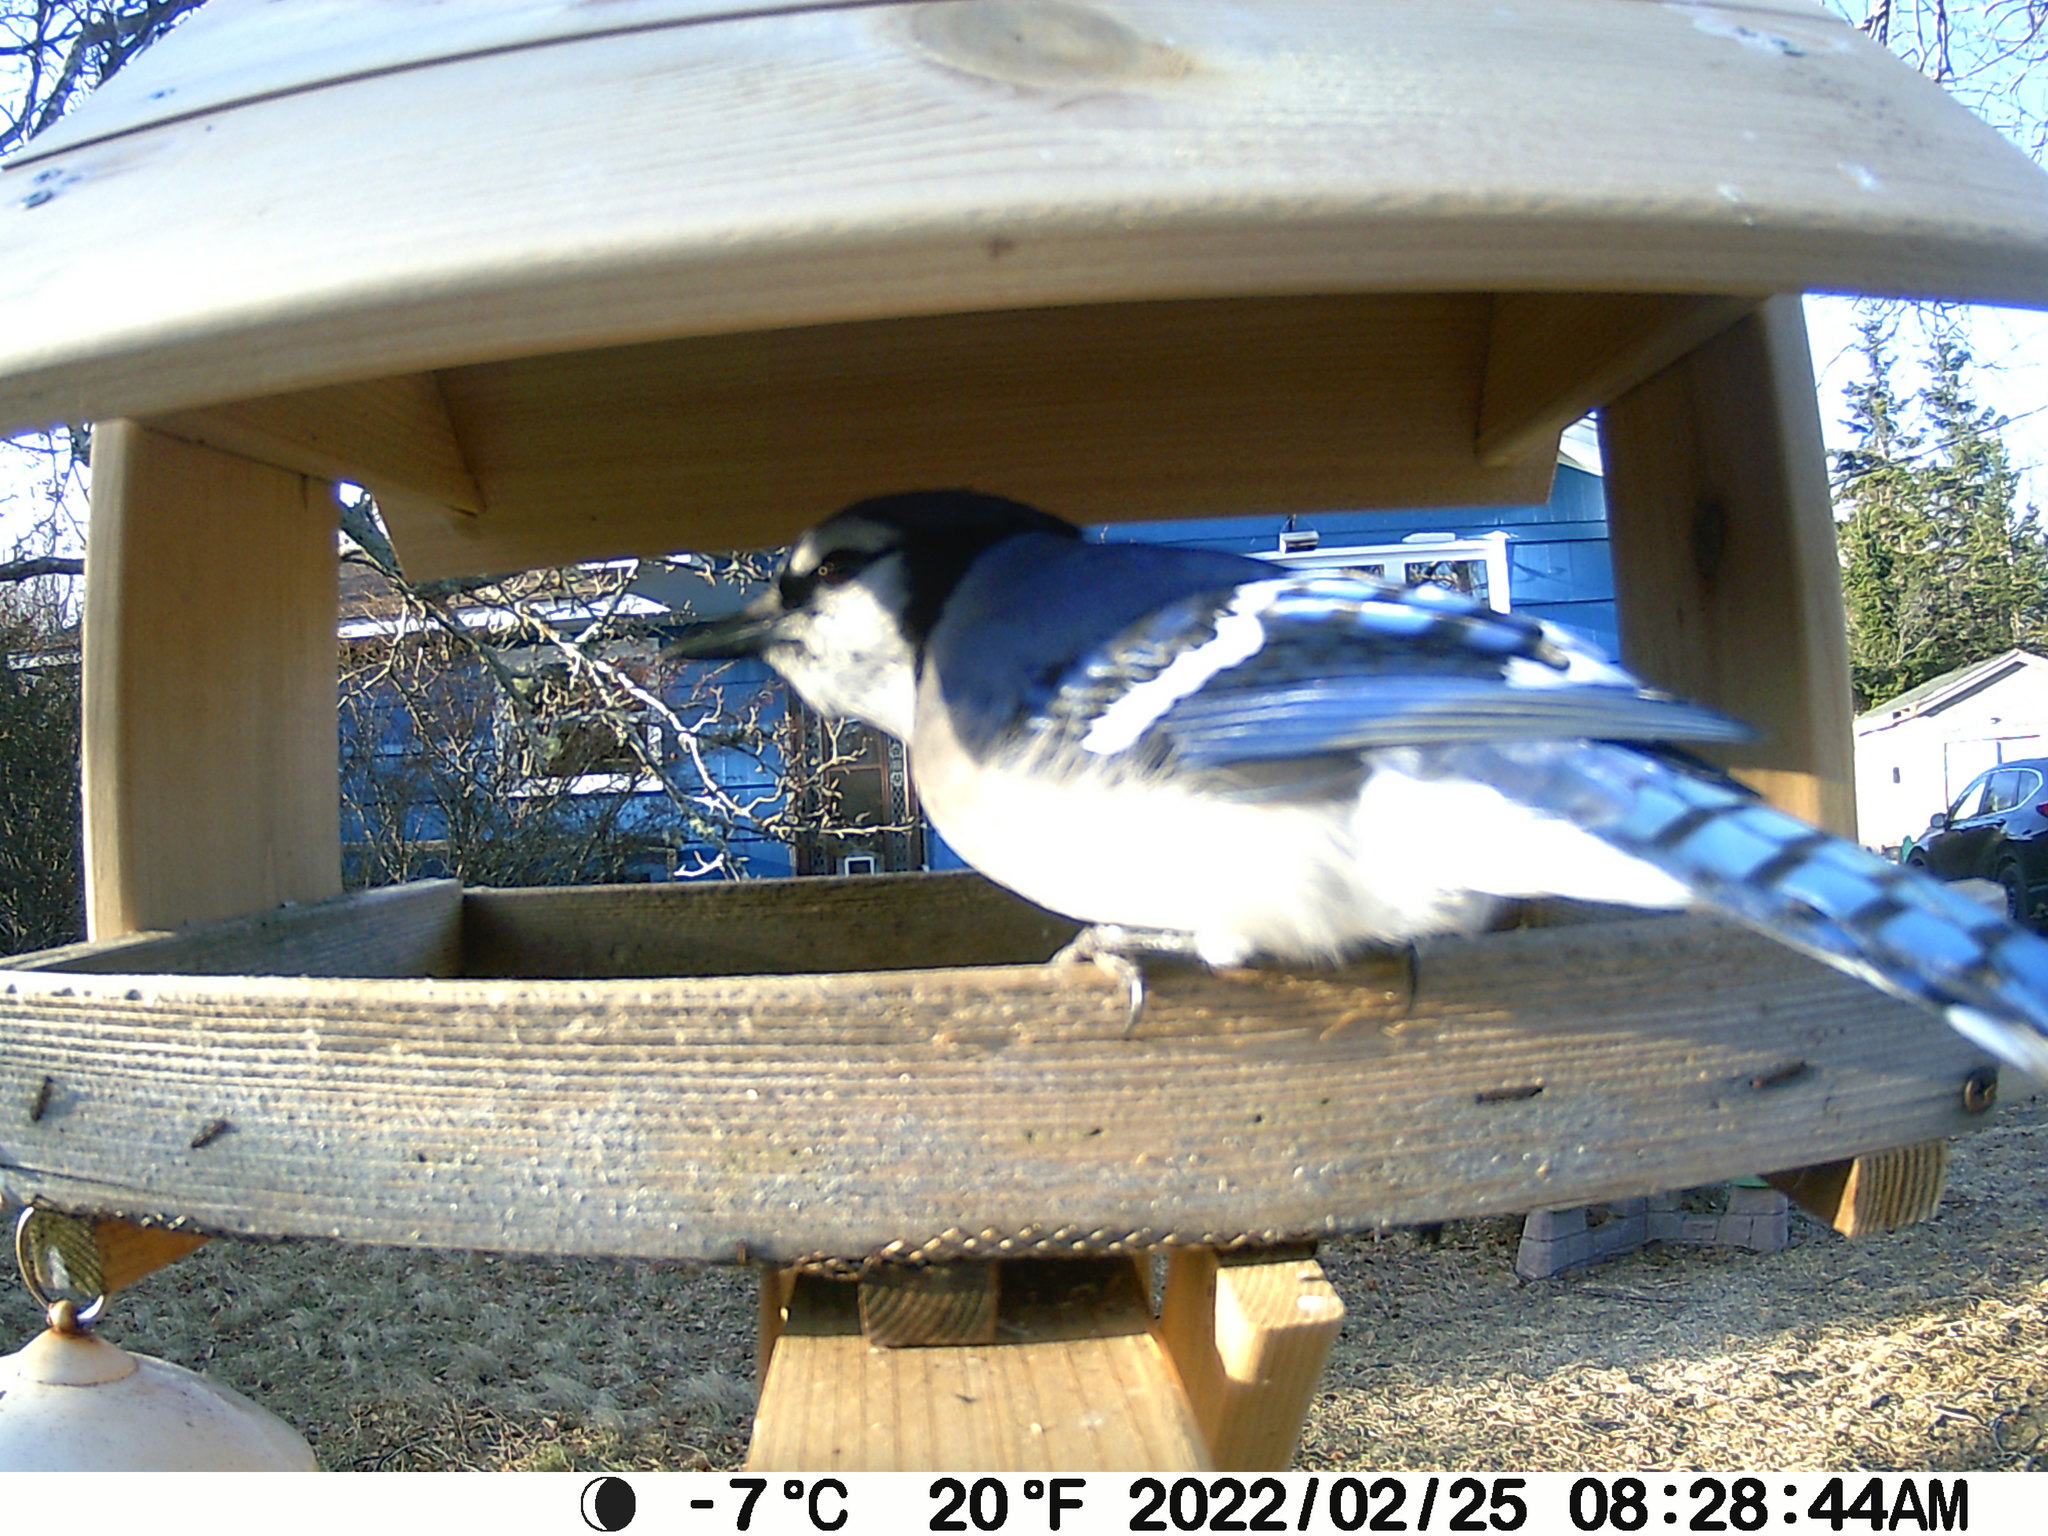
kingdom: Animalia
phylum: Chordata
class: Aves
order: Passeriformes
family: Corvidae
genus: Cyanocitta
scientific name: Cyanocitta cristata
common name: Blue jay
